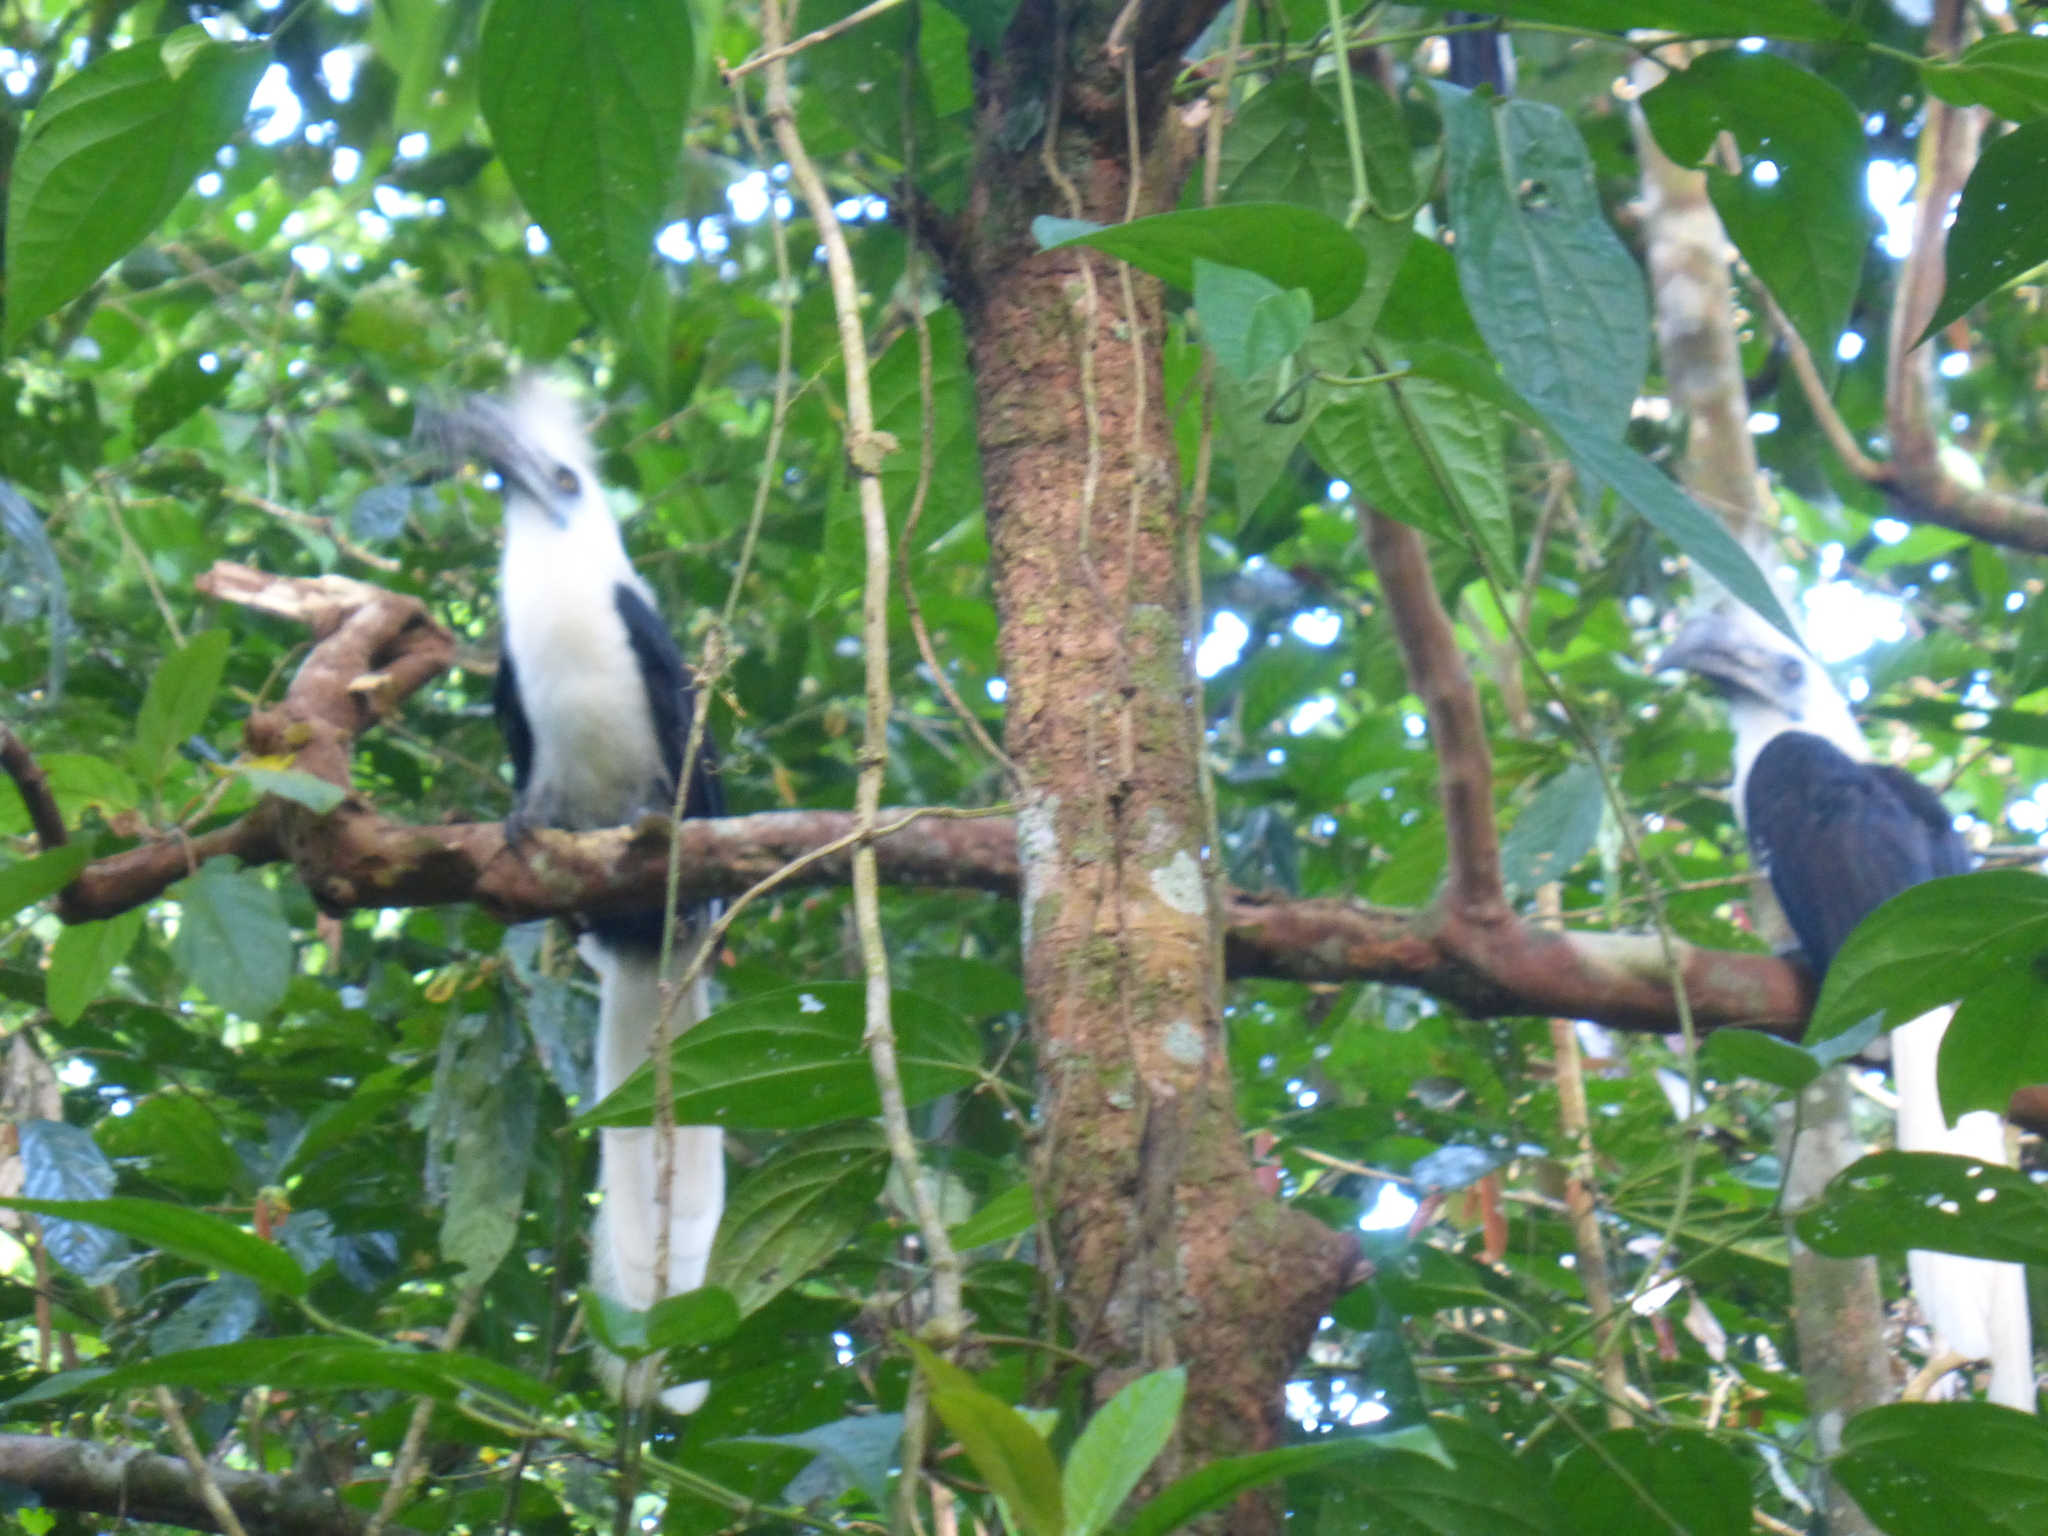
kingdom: Animalia
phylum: Chordata
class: Aves
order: Bucerotiformes
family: Bucerotidae
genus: Berenicornis
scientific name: Berenicornis comatus
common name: White-crowned hornbill
